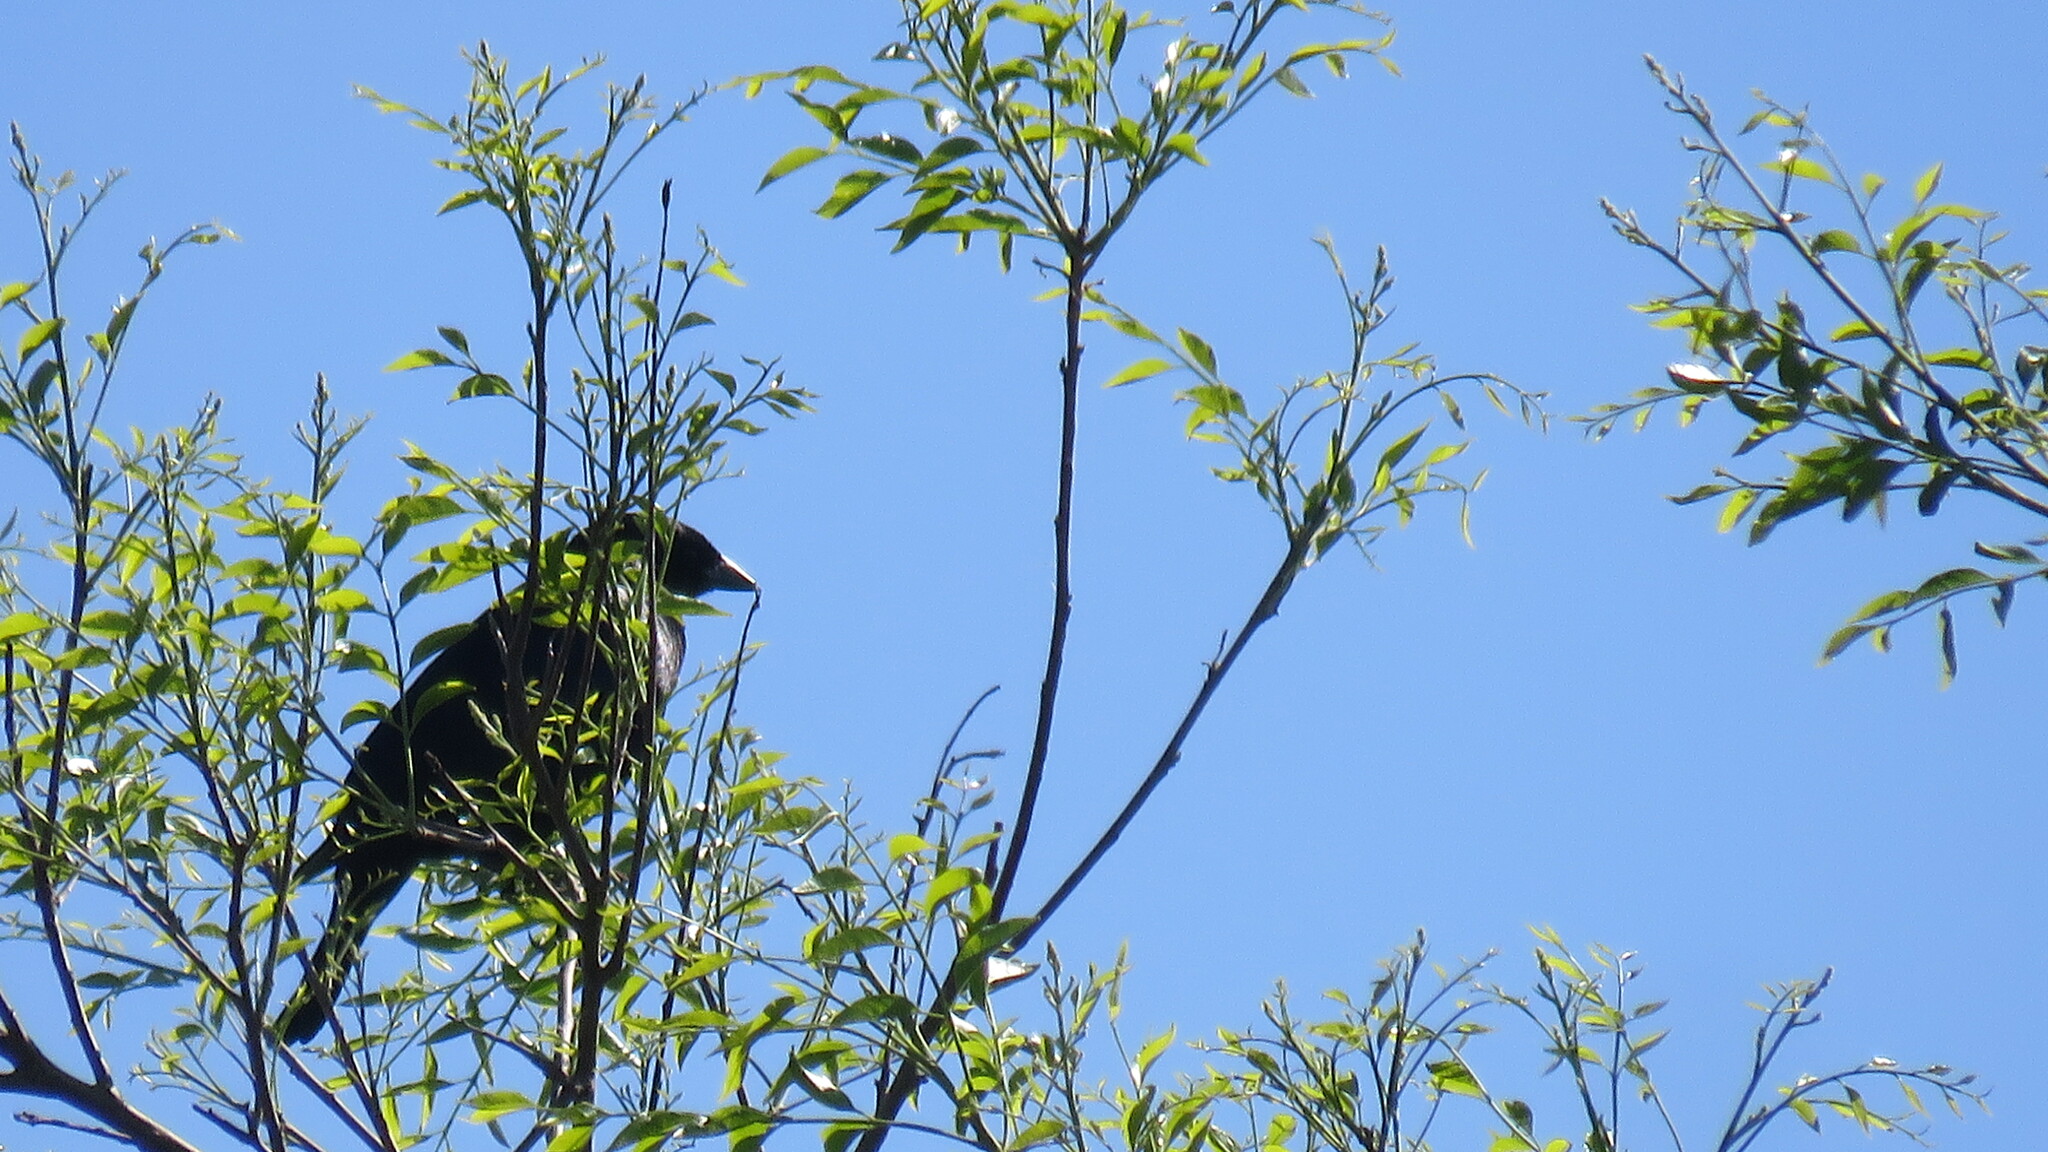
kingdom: Animalia
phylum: Chordata
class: Aves
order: Passeriformes
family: Icteridae
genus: Molothrus
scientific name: Molothrus bonariensis
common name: Shiny cowbird
